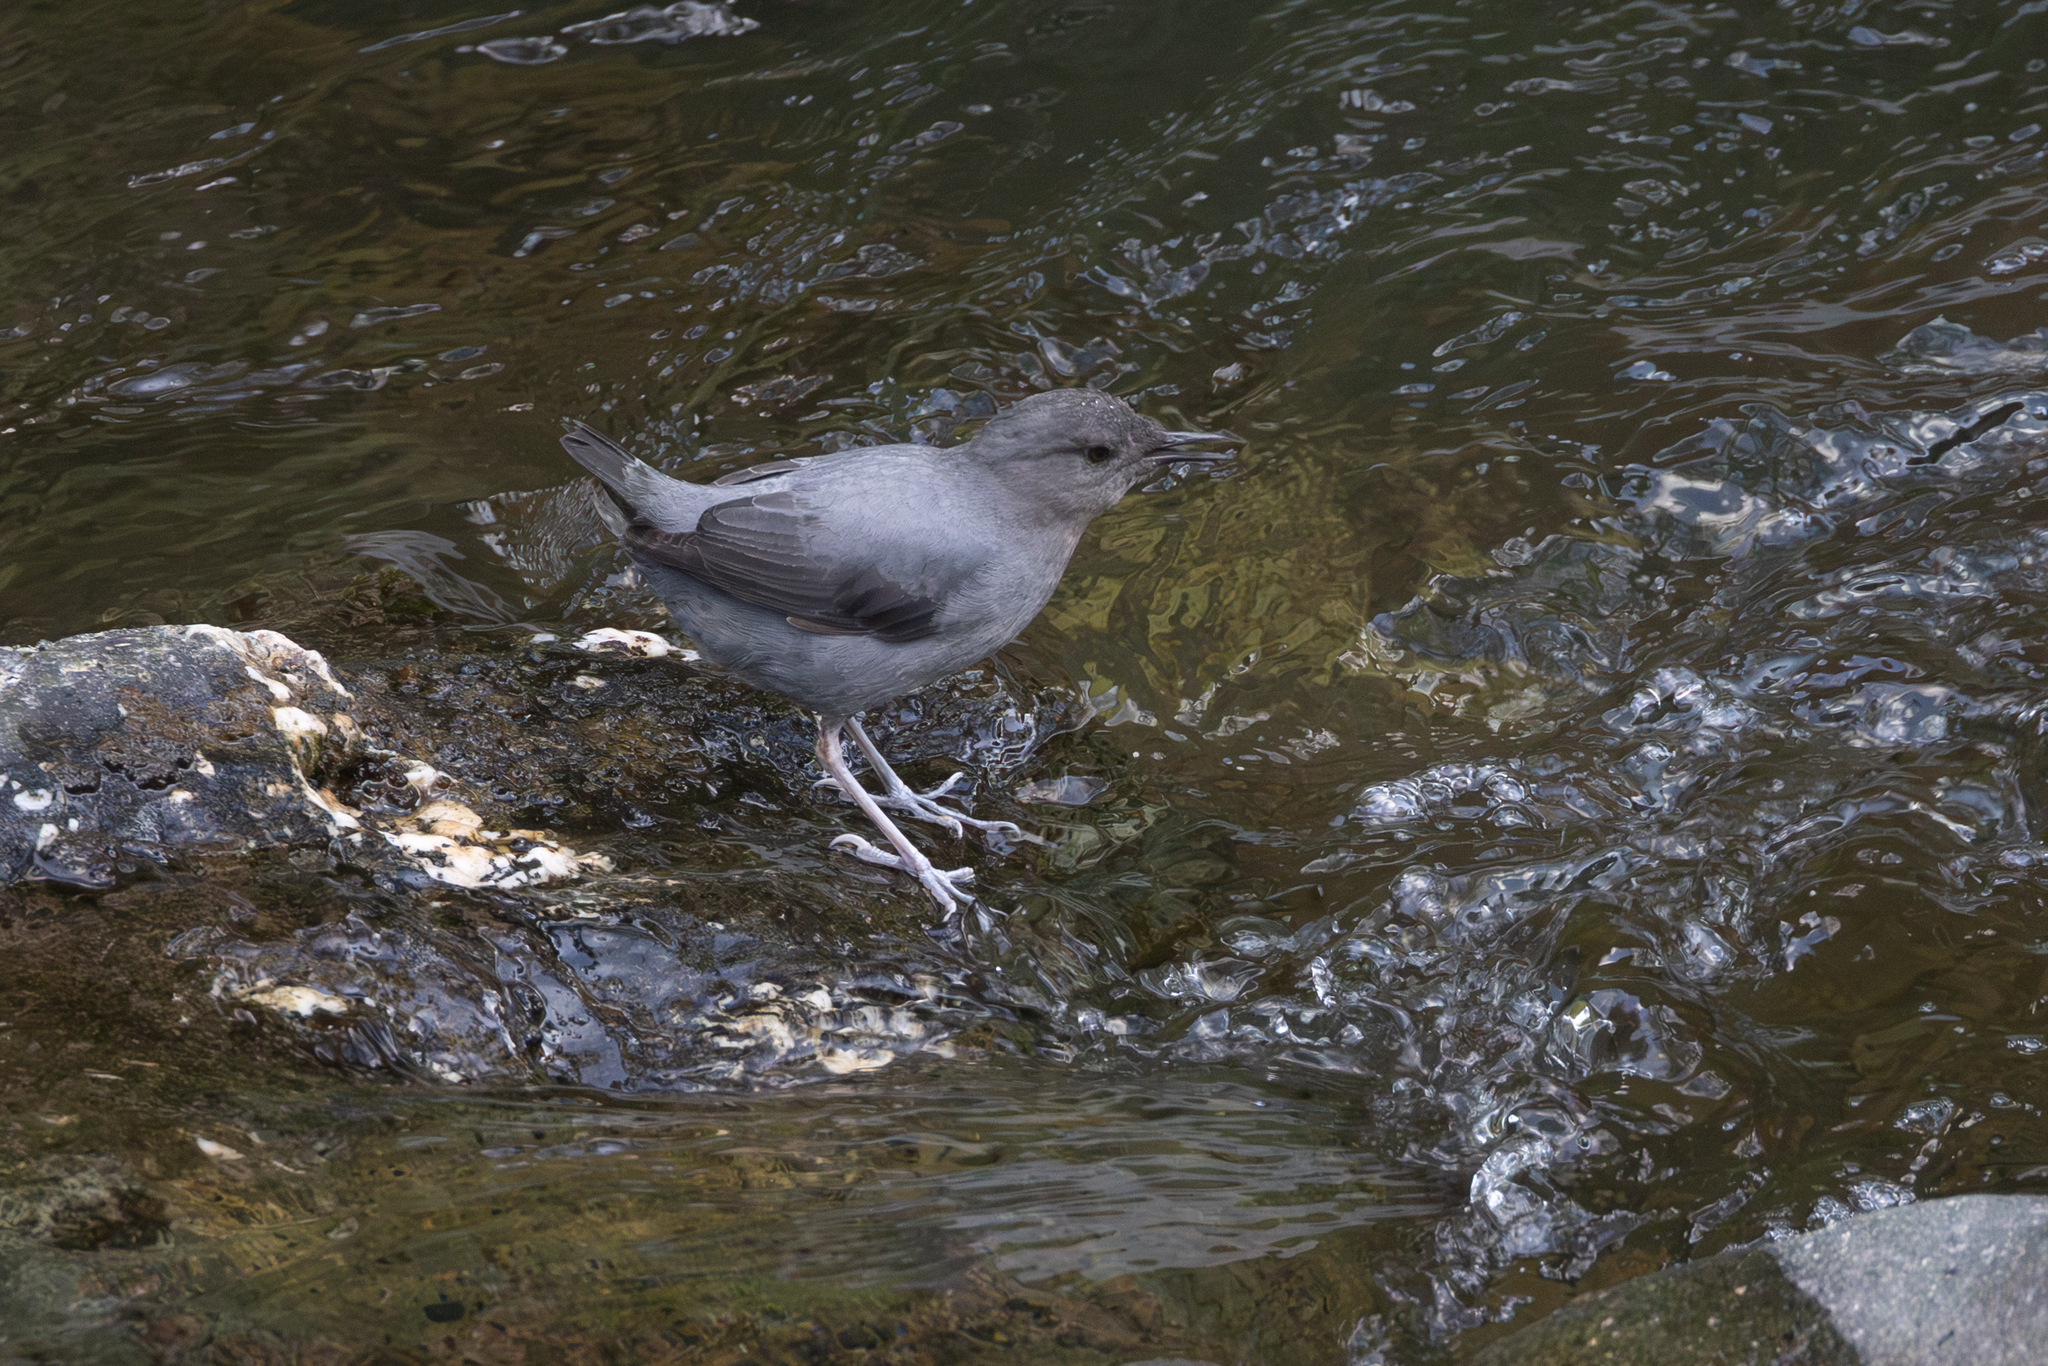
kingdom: Animalia
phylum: Chordata
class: Aves
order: Passeriformes
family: Cinclidae
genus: Cinclus
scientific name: Cinclus mexicanus
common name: American dipper
